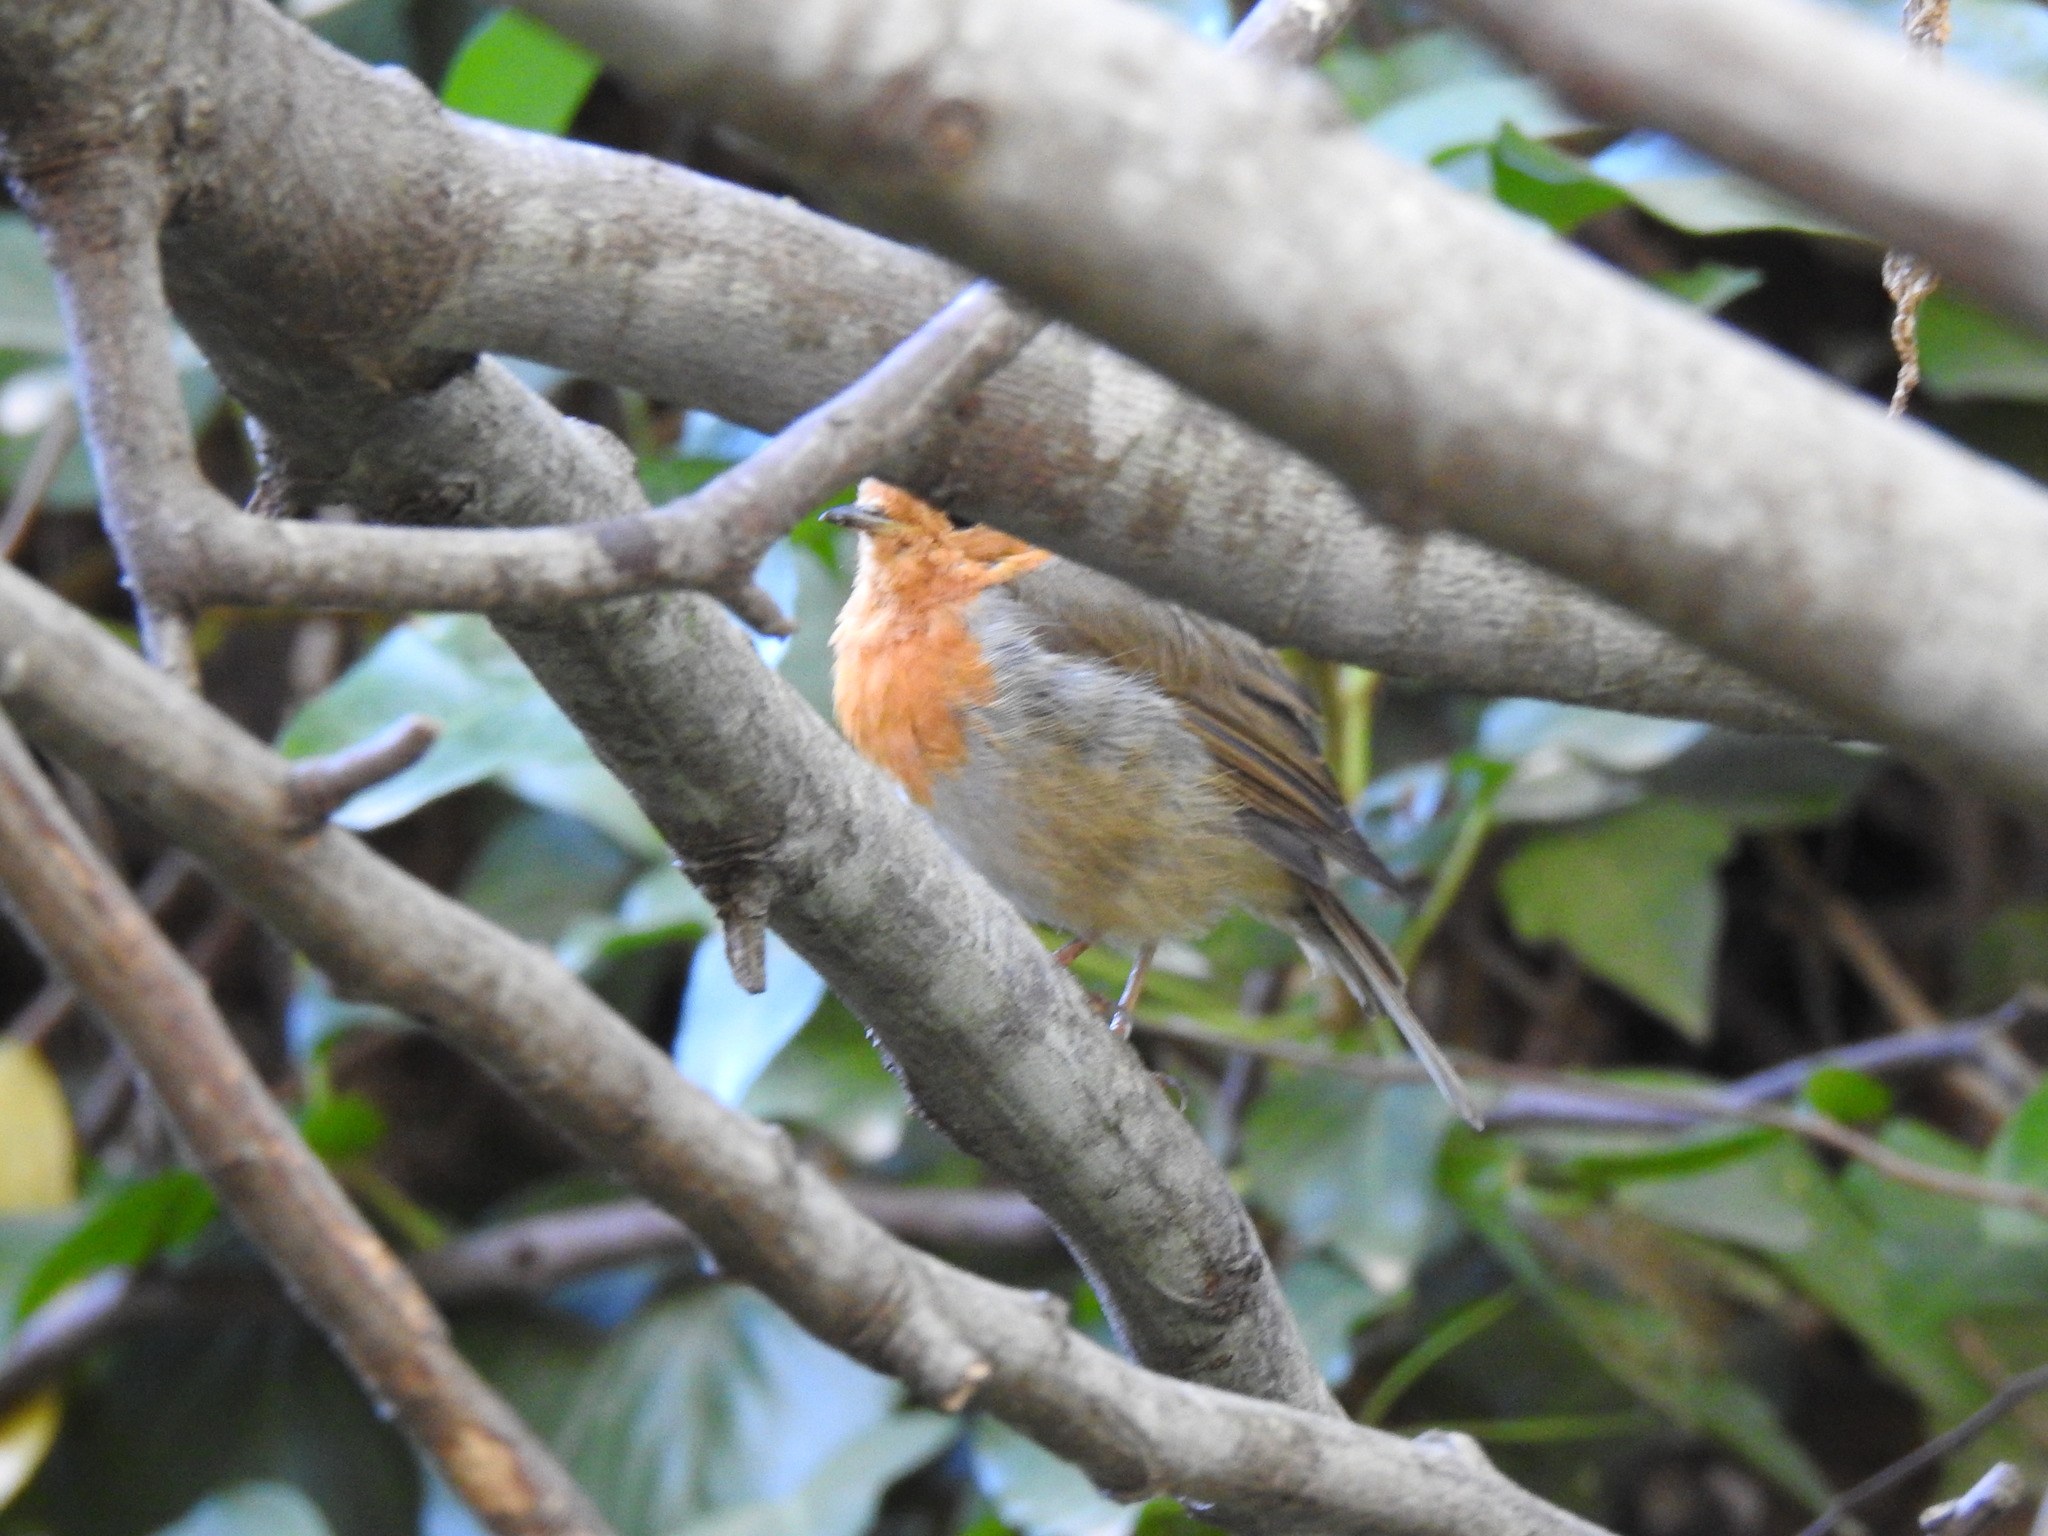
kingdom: Animalia
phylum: Chordata
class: Aves
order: Passeriformes
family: Muscicapidae
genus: Erithacus
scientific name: Erithacus rubecula
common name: European robin
